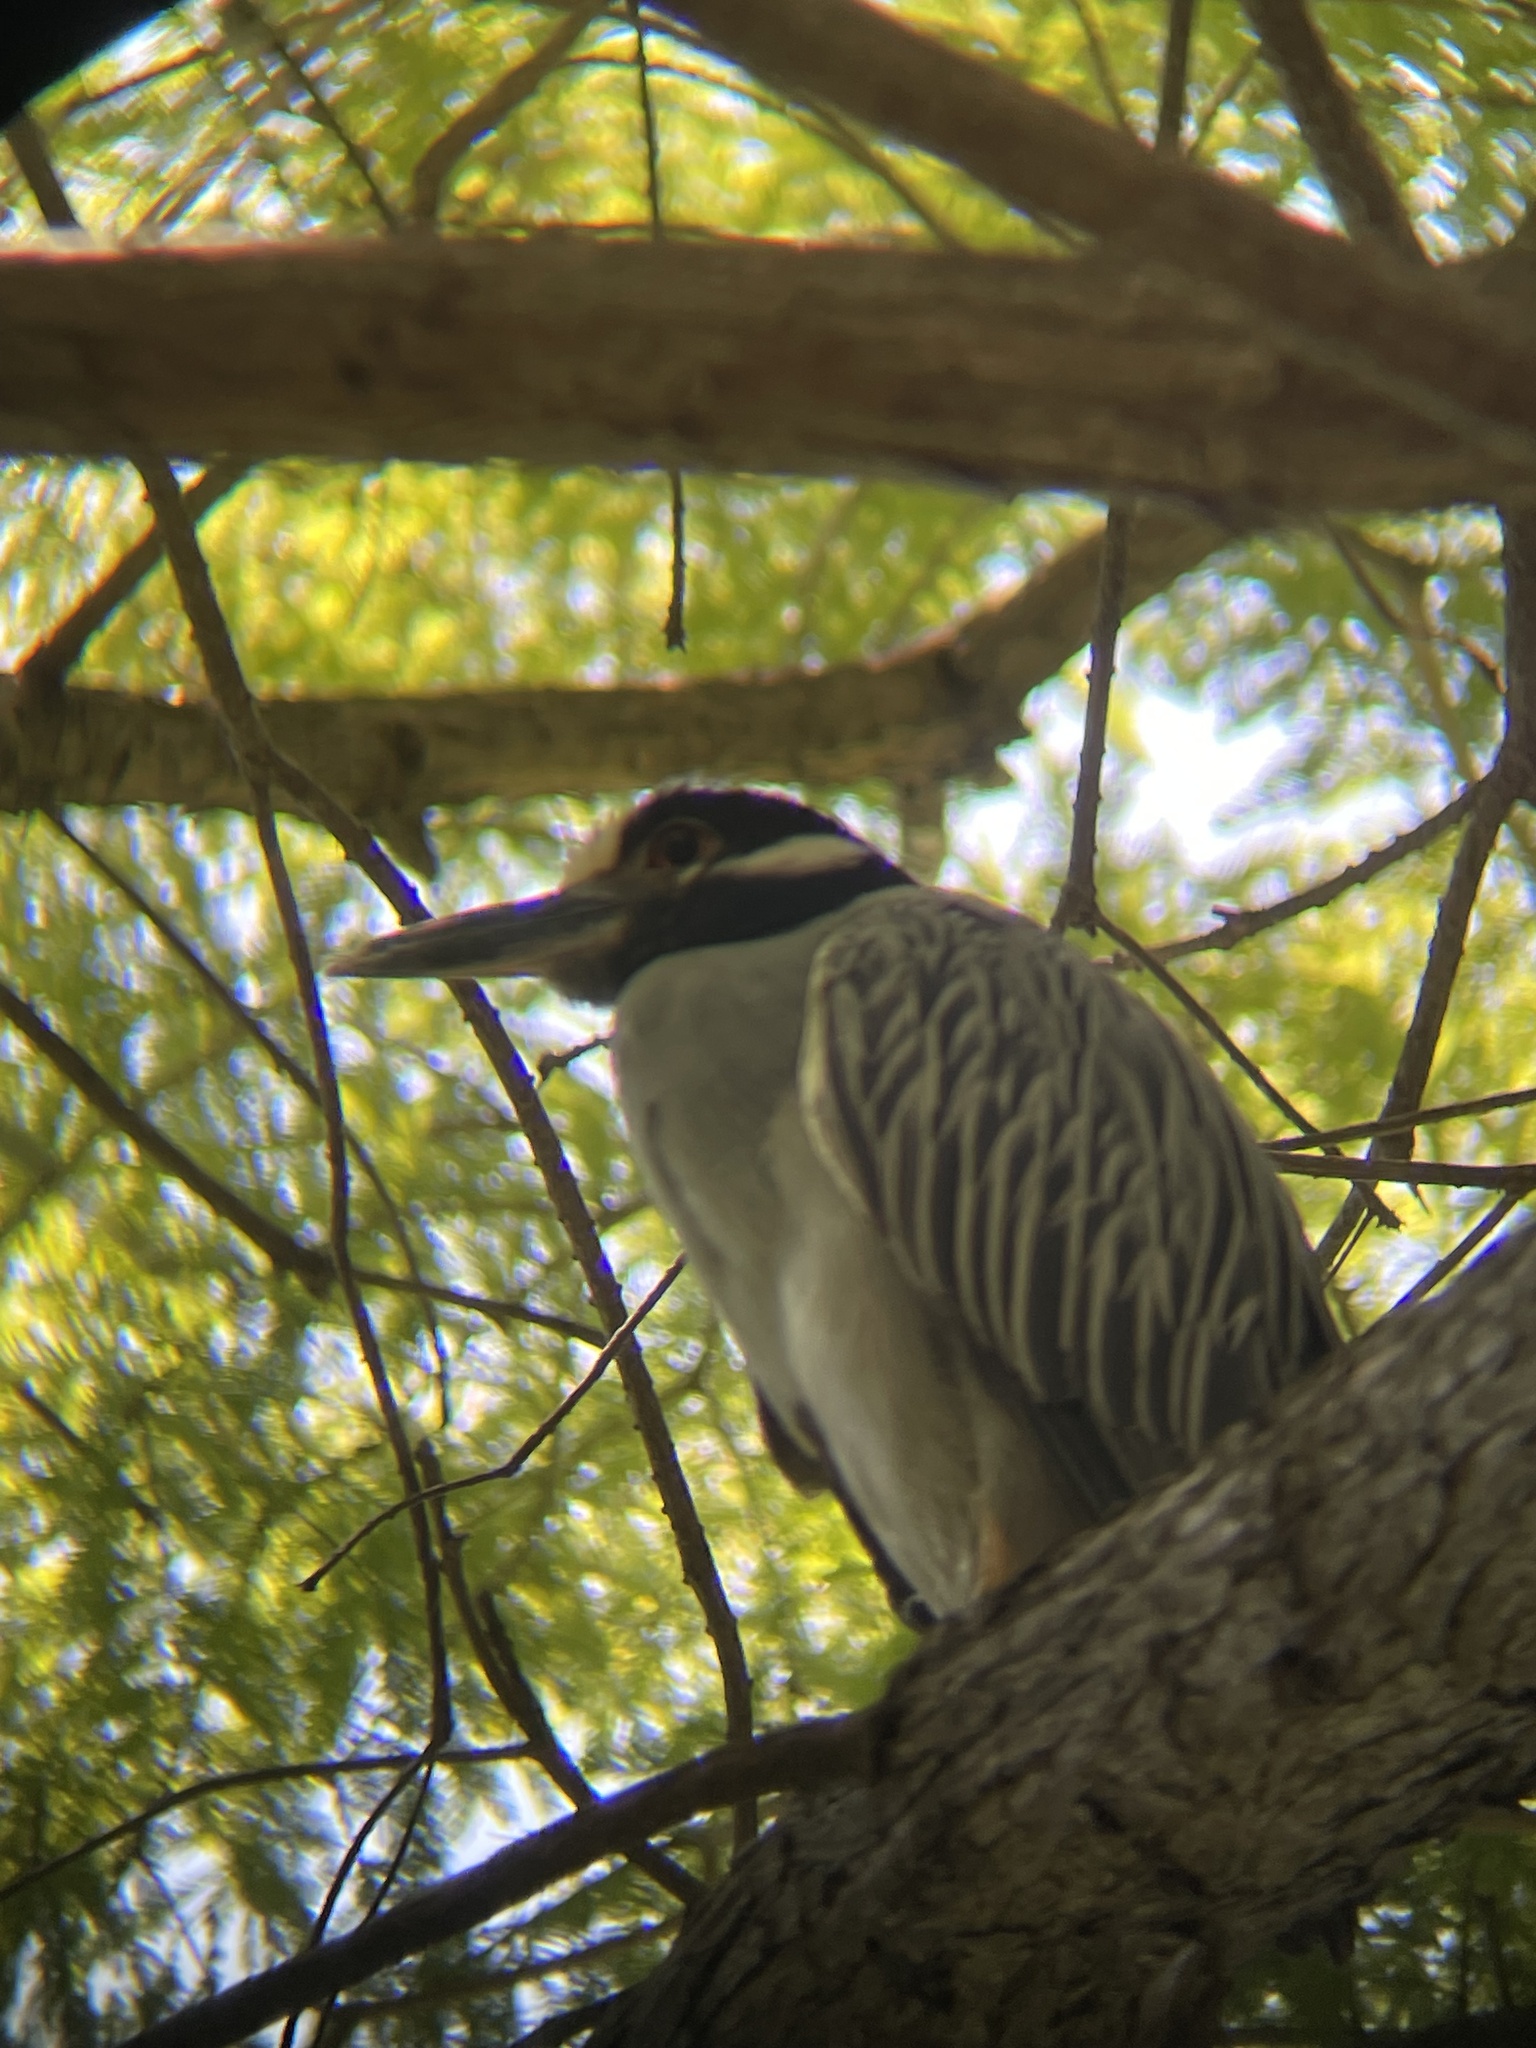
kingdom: Animalia
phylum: Chordata
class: Aves
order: Pelecaniformes
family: Ardeidae
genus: Nyctanassa
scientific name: Nyctanassa violacea
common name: Yellow-crowned night heron
